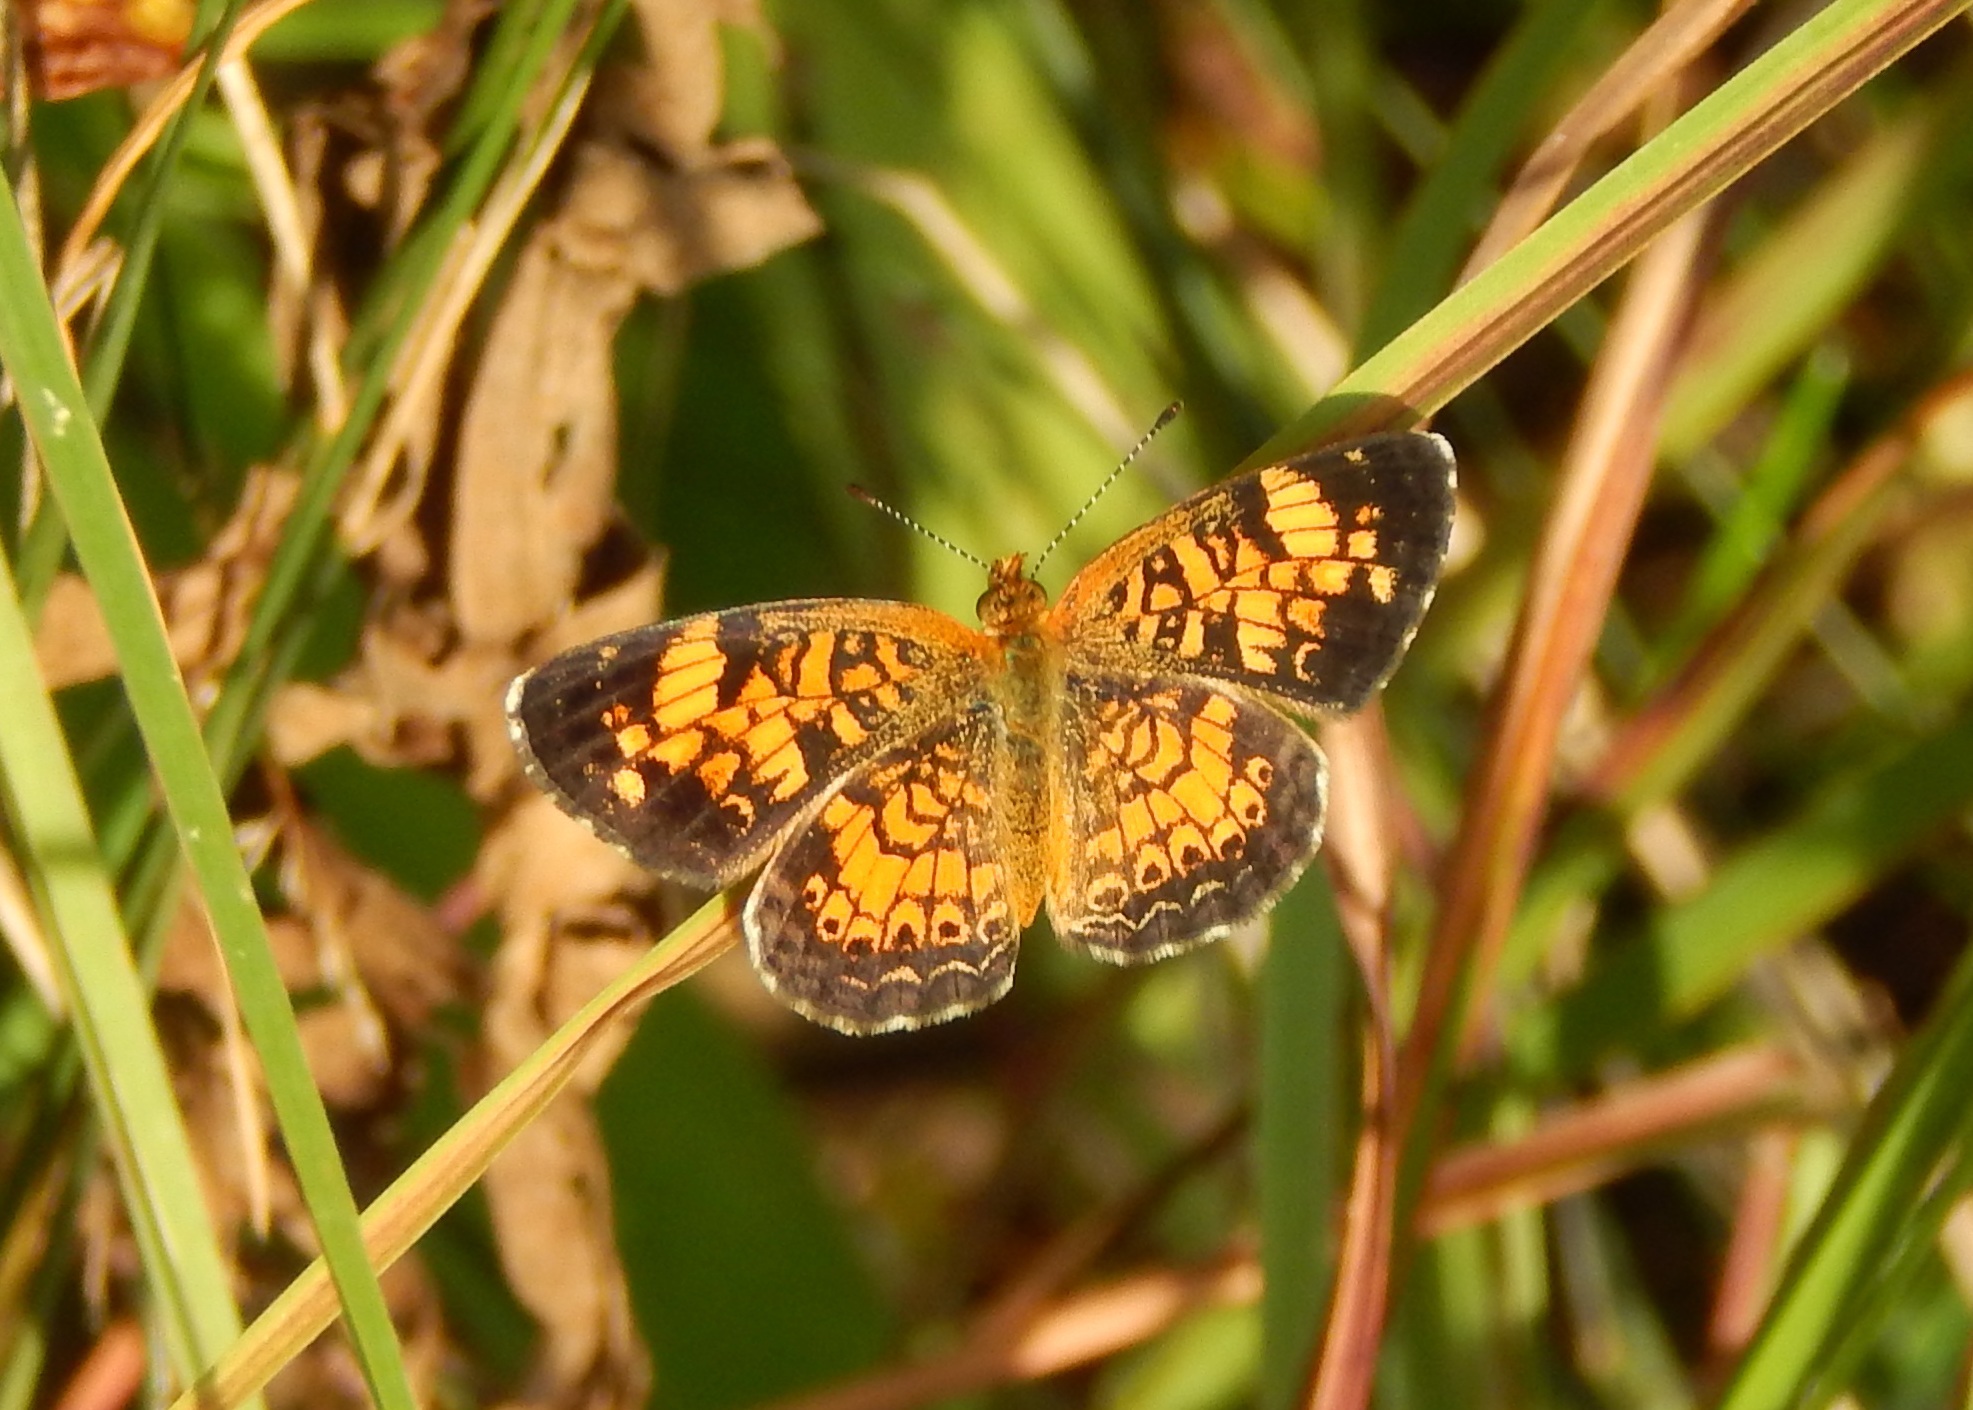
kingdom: Animalia
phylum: Arthropoda
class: Insecta
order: Lepidoptera
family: Nymphalidae
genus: Phyciodes
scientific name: Phyciodes tharos
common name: Pearl crescent
